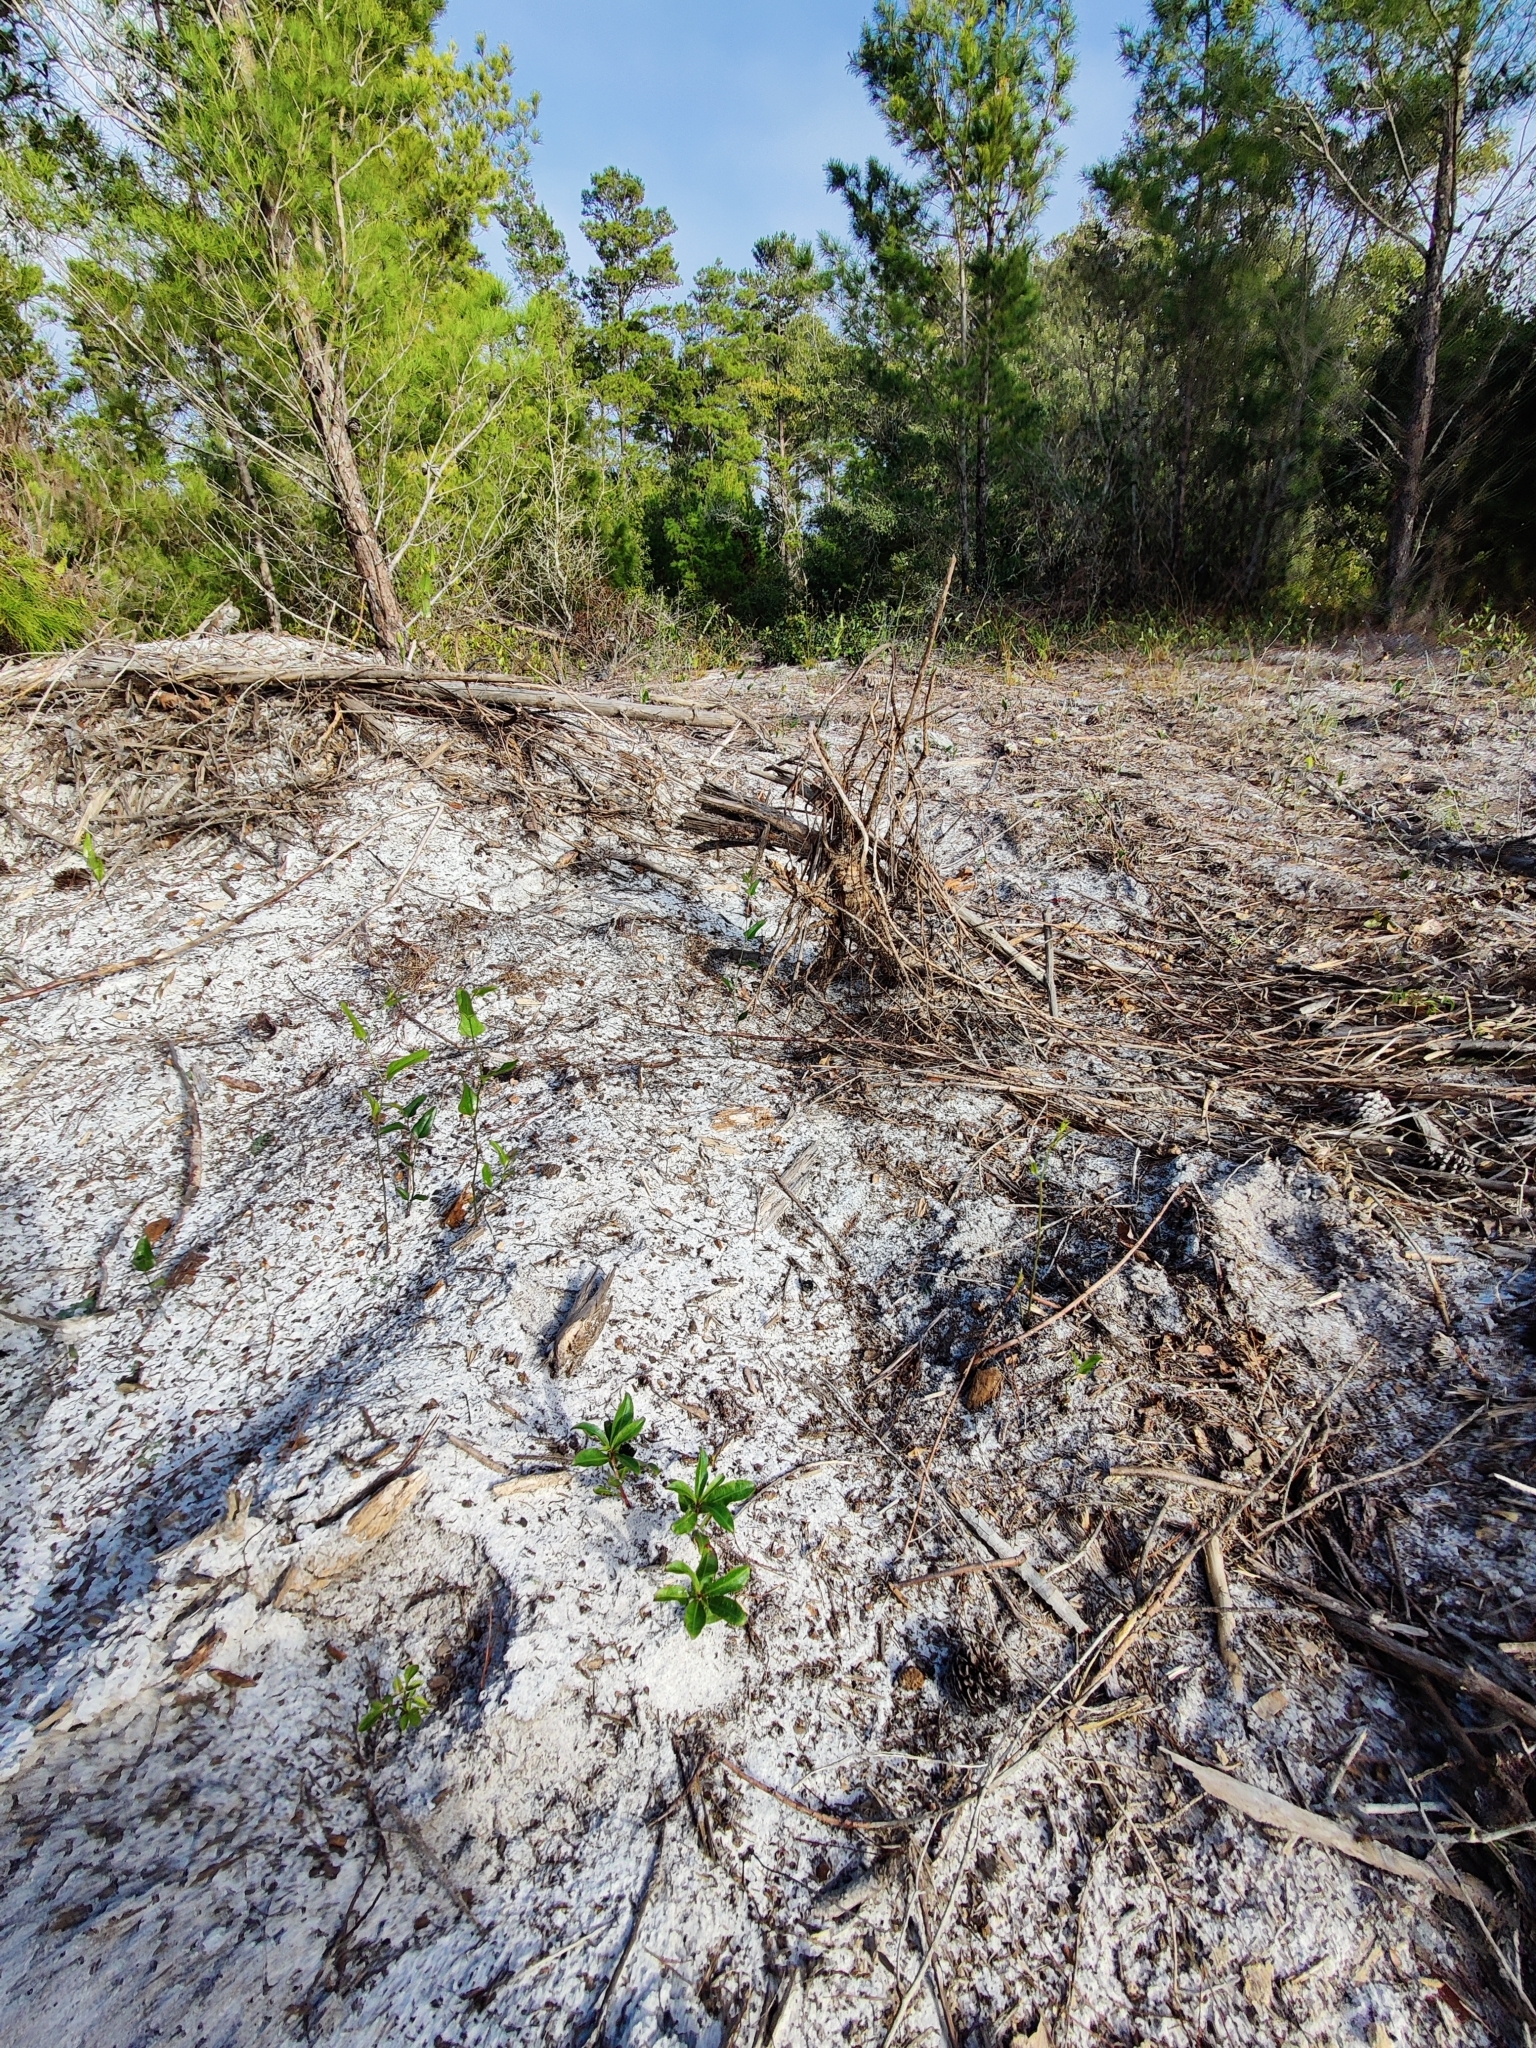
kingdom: Plantae
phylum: Tracheophyta
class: Magnoliopsida
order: Malpighiales
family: Euphorbiaceae
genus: Stillingia
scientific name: Stillingia sylvatica
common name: Queen's-delight
